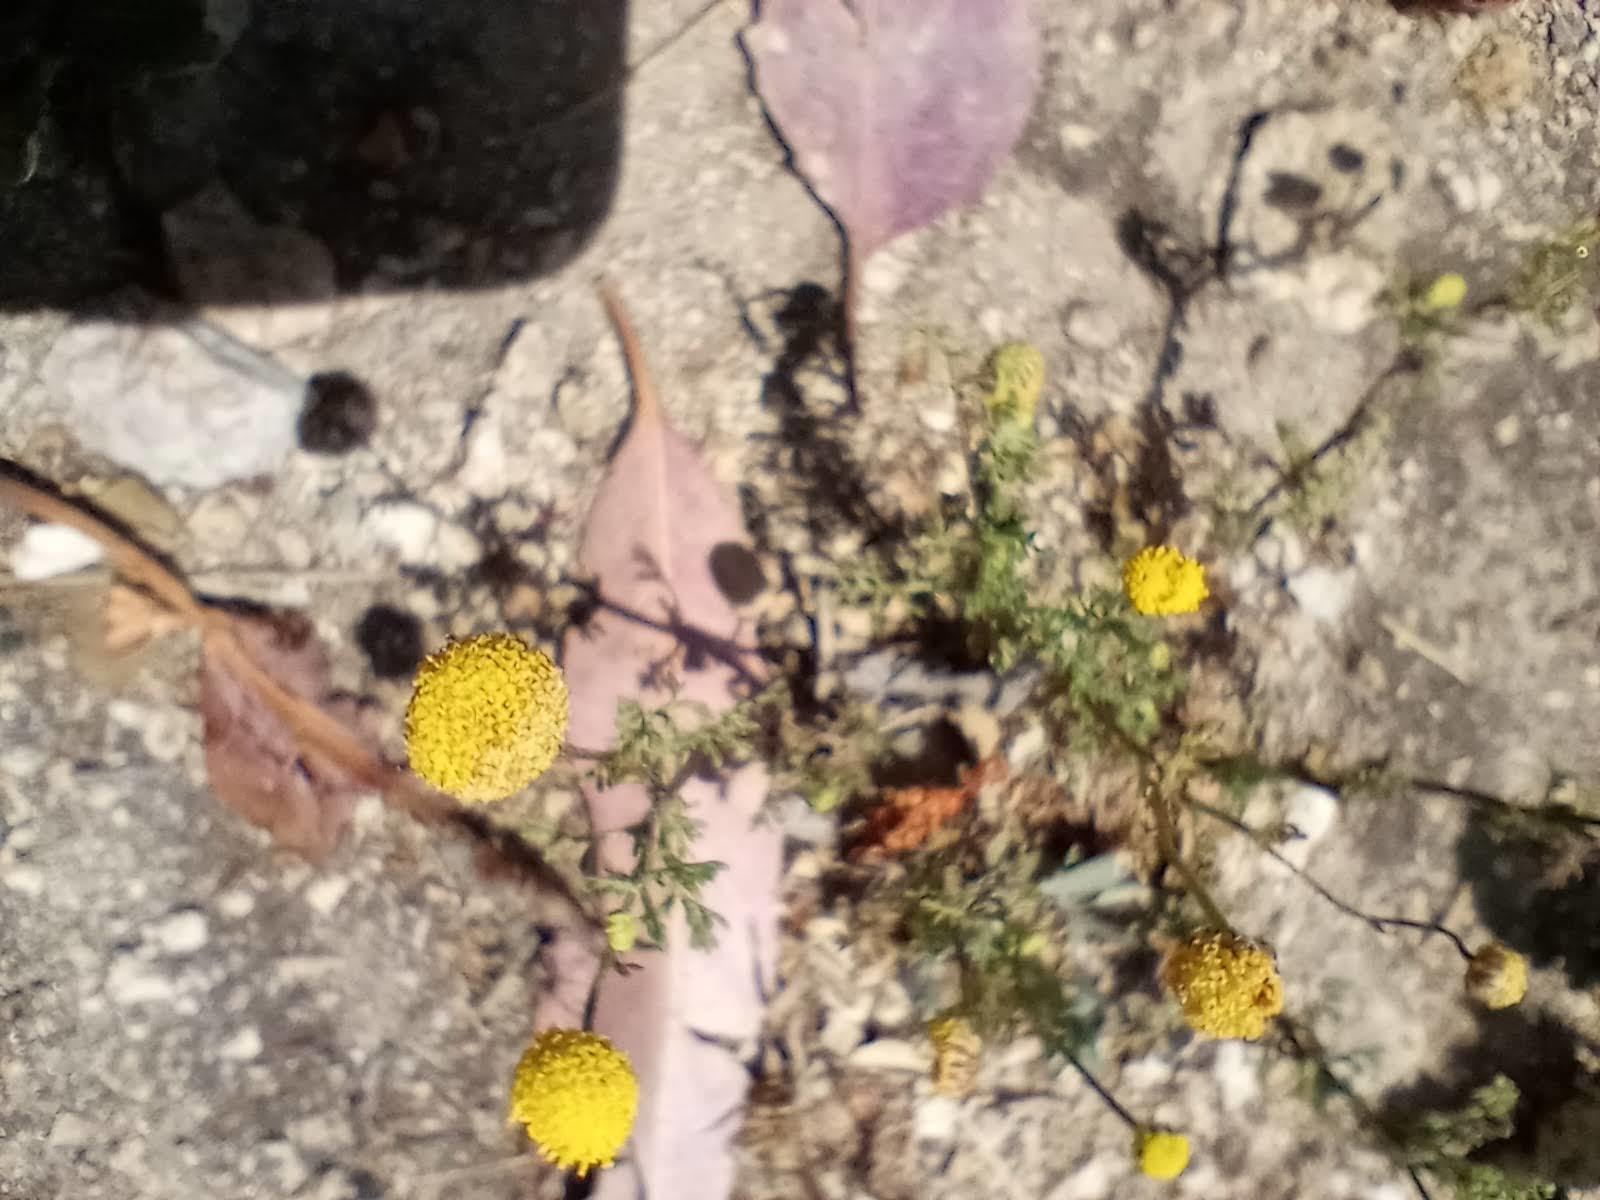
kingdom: Plantae
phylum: Tracheophyta
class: Magnoliopsida
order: Asterales
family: Asteraceae
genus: Oncosiphon
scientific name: Oncosiphon pilulifer
